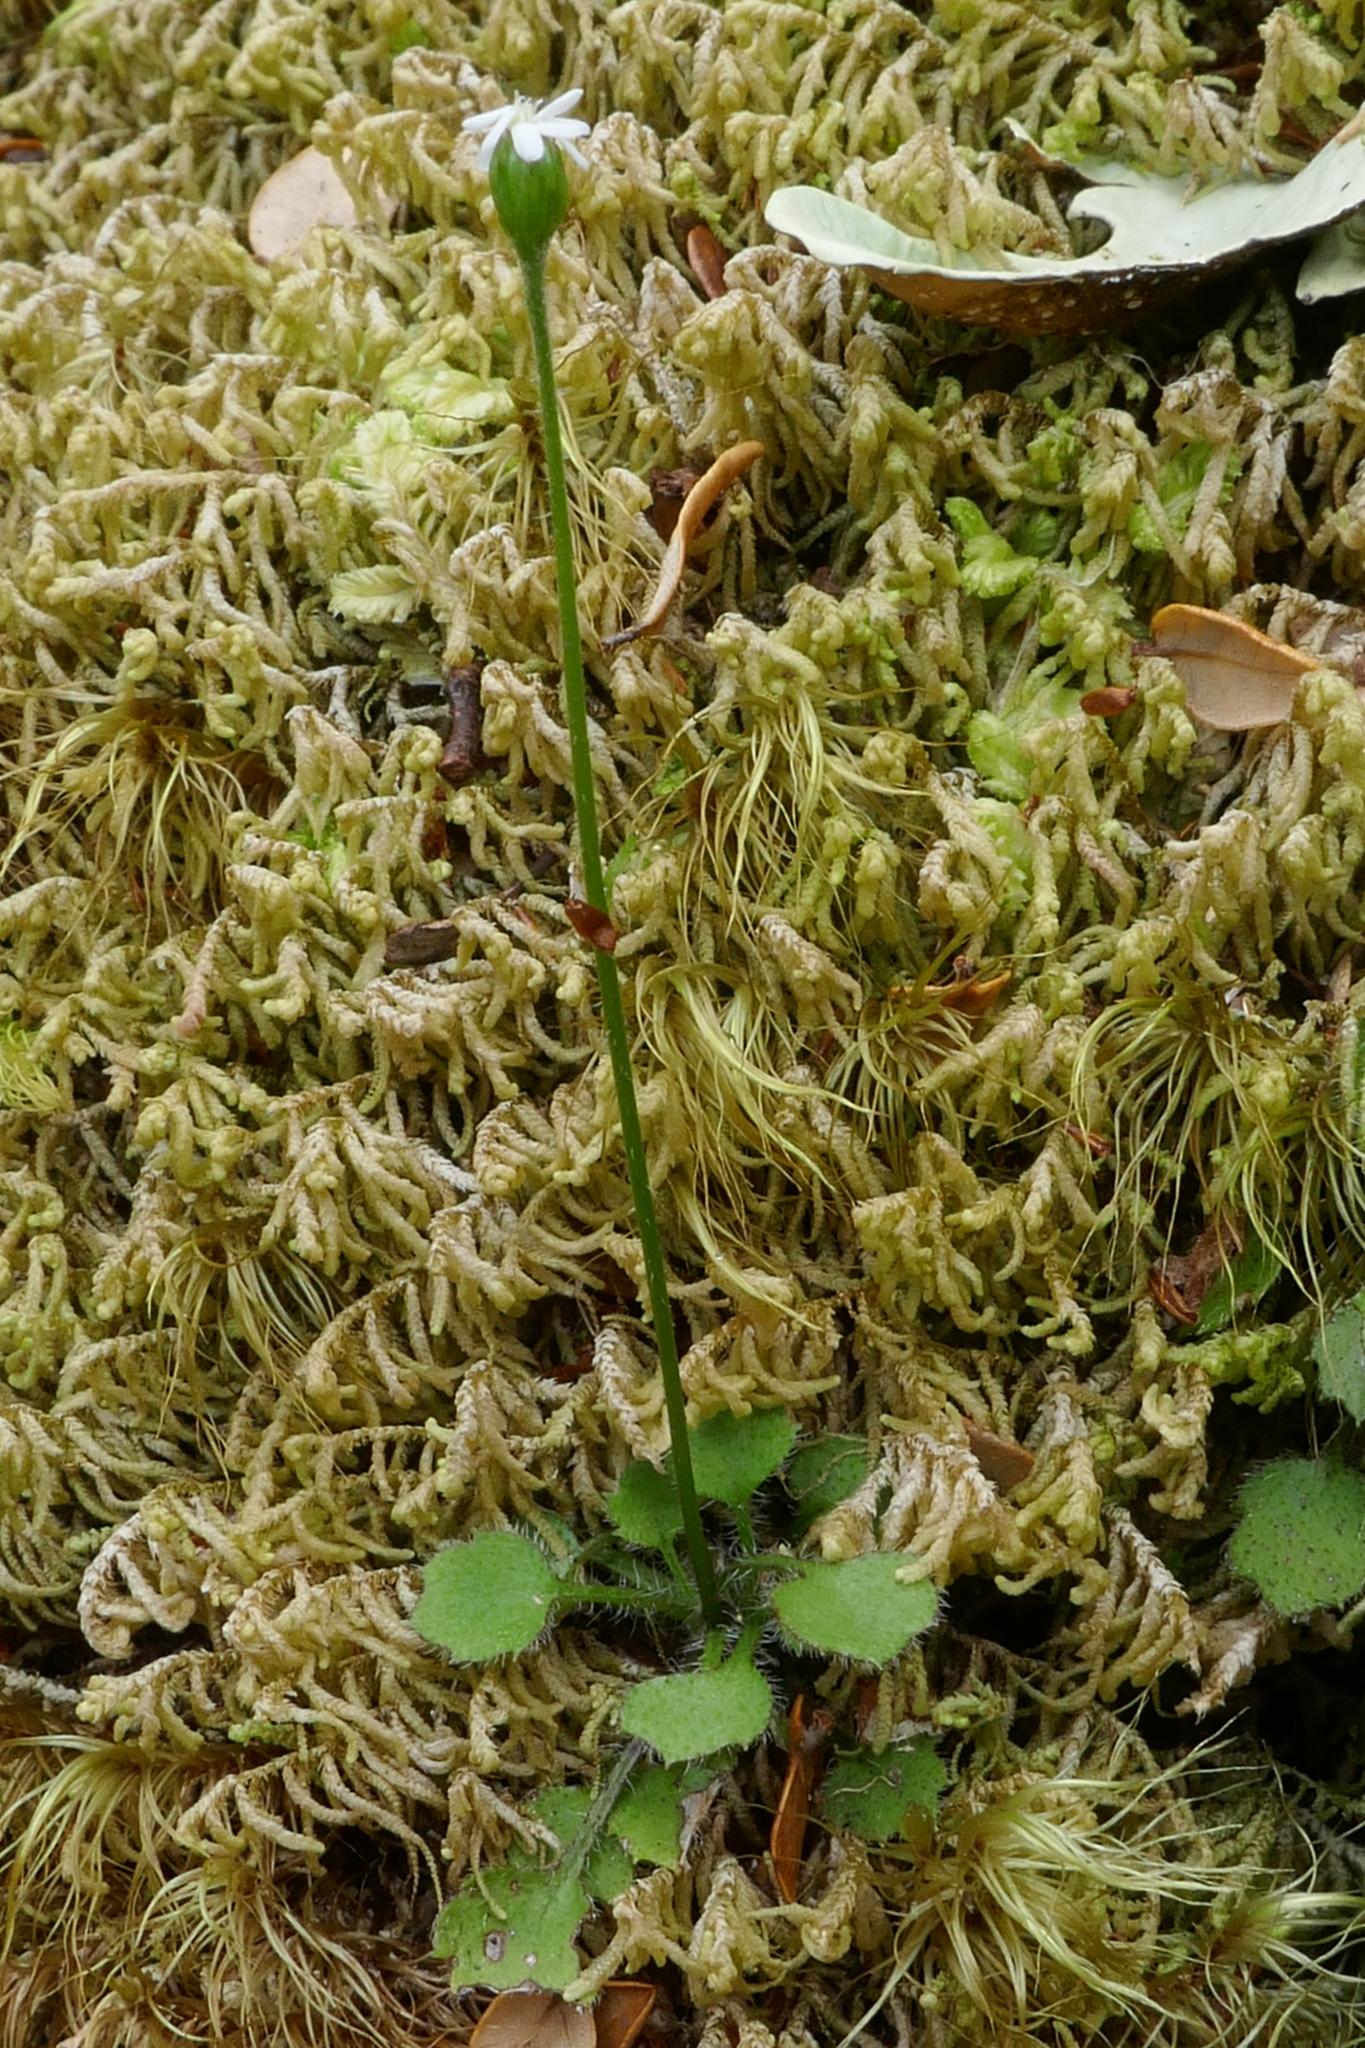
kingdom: Plantae
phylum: Tracheophyta
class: Magnoliopsida
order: Asterales
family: Asteraceae
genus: Lagenophora
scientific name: Lagenophora strangulata
